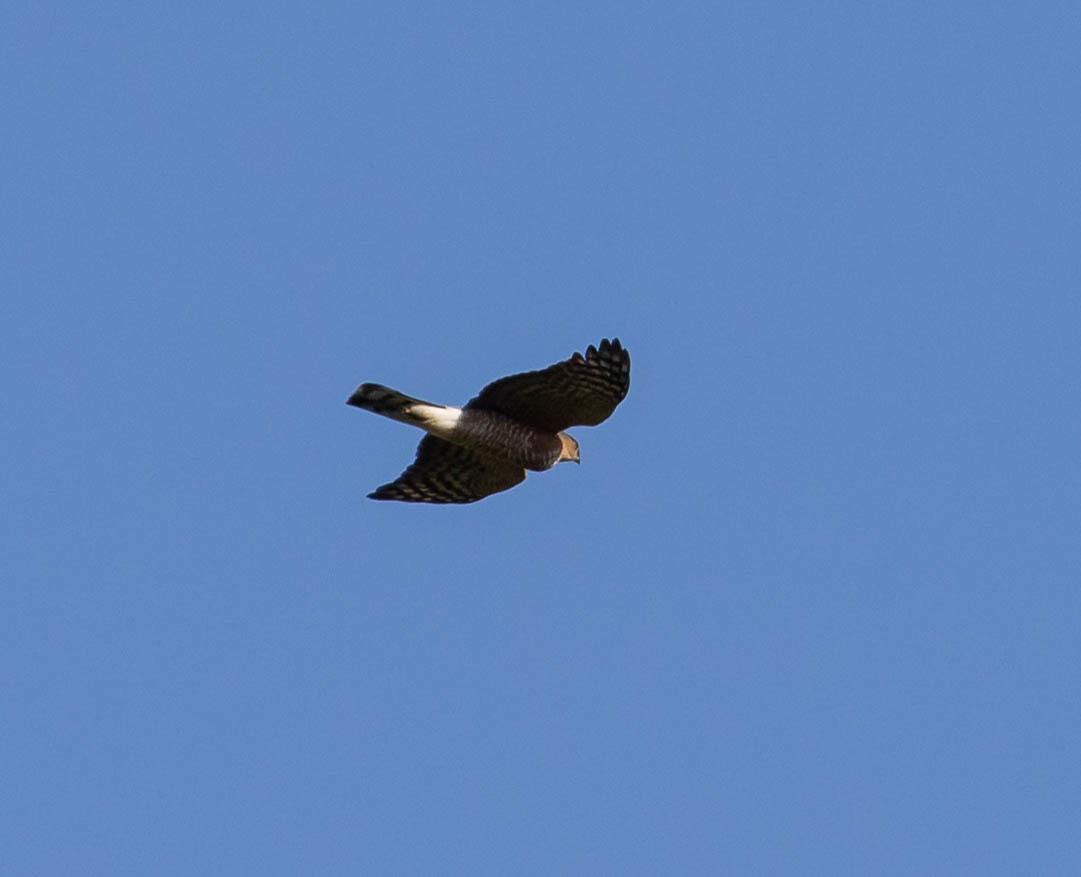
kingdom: Animalia
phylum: Chordata
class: Aves
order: Accipitriformes
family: Accipitridae
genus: Accipiter
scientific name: Accipiter striatus
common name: Sharp-shinned hawk
